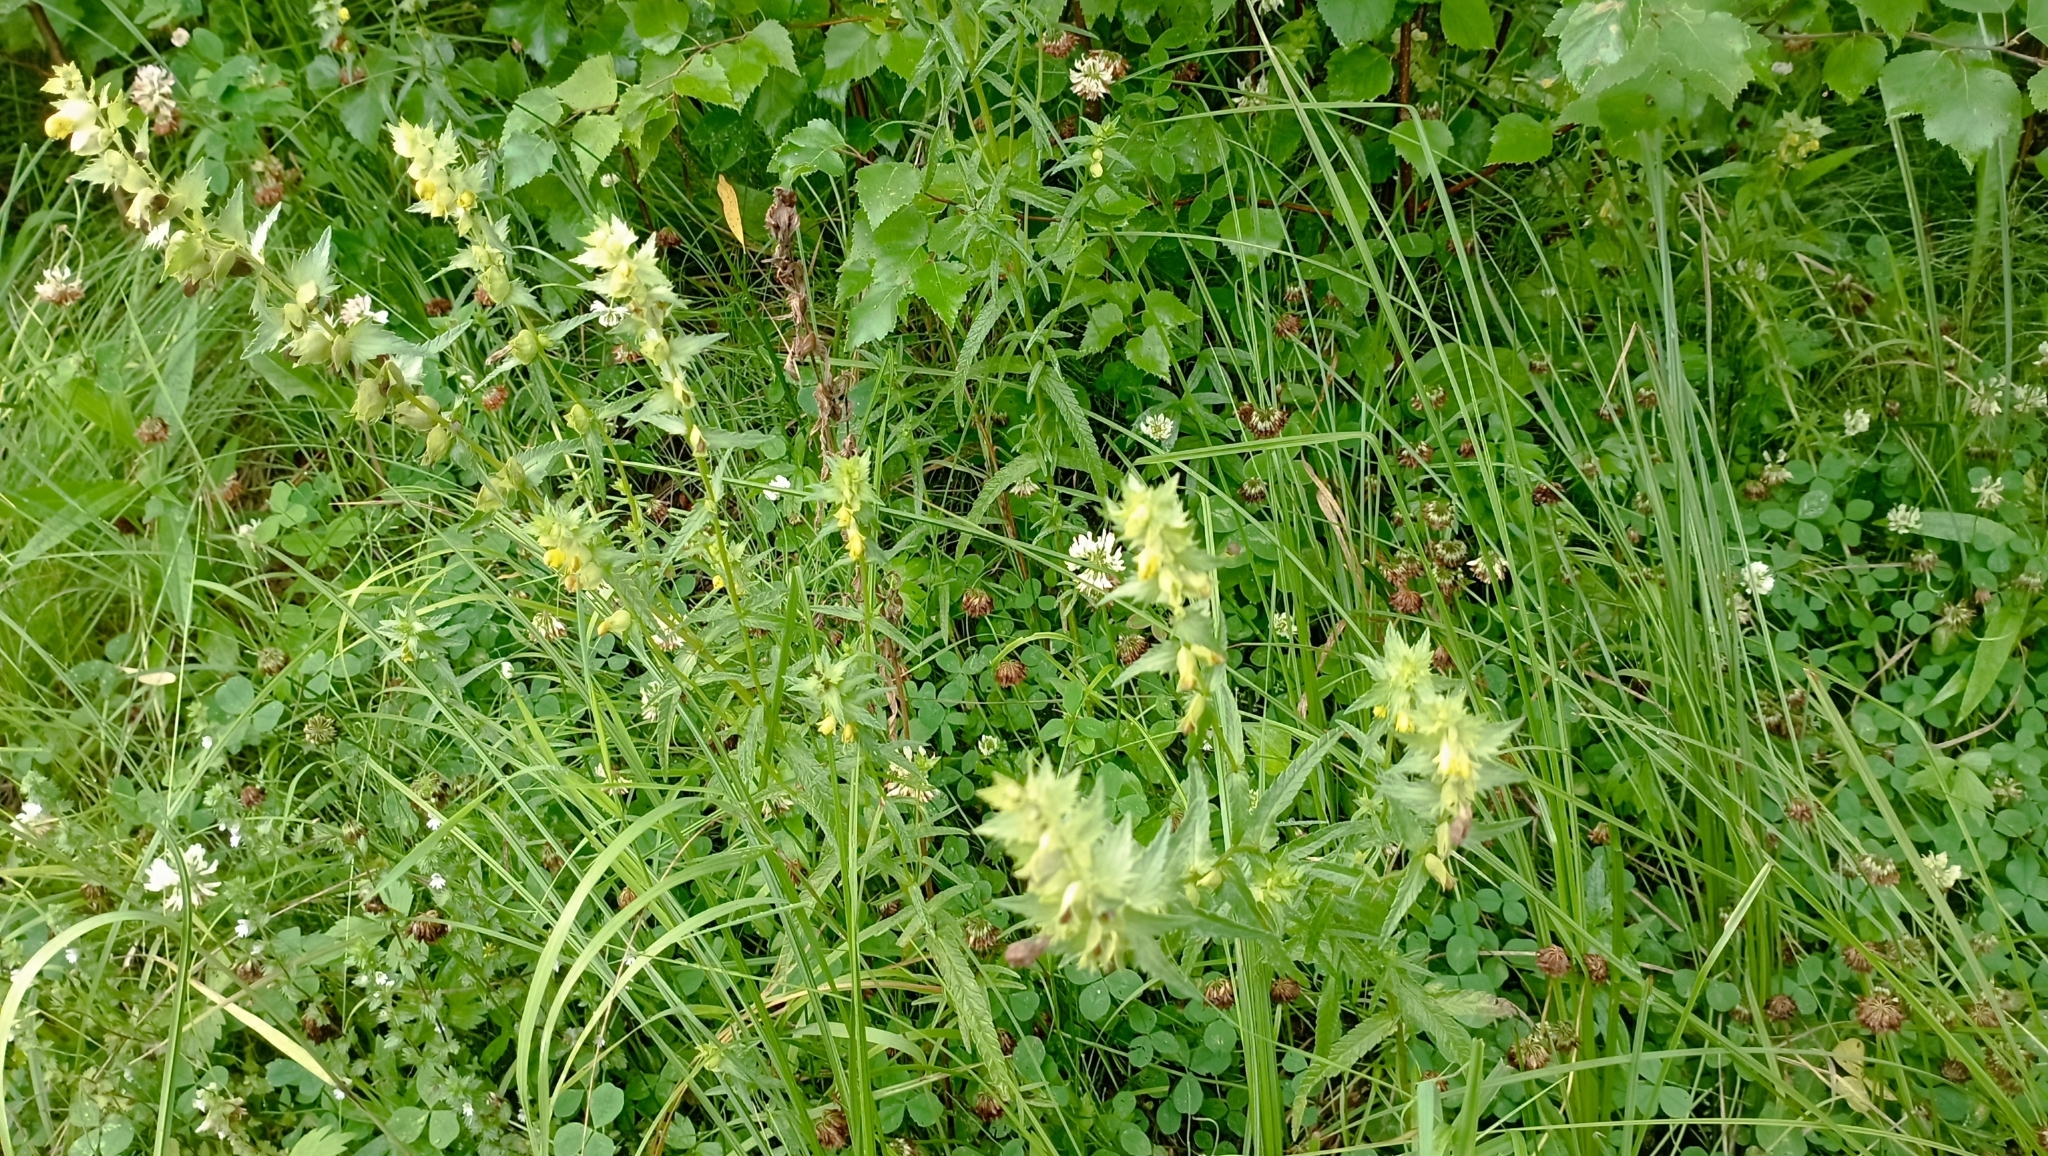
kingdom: Plantae
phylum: Tracheophyta
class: Magnoliopsida
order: Lamiales
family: Orobanchaceae
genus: Rhinanthus
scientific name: Rhinanthus serotinus
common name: Late-flowering yellow rattle
